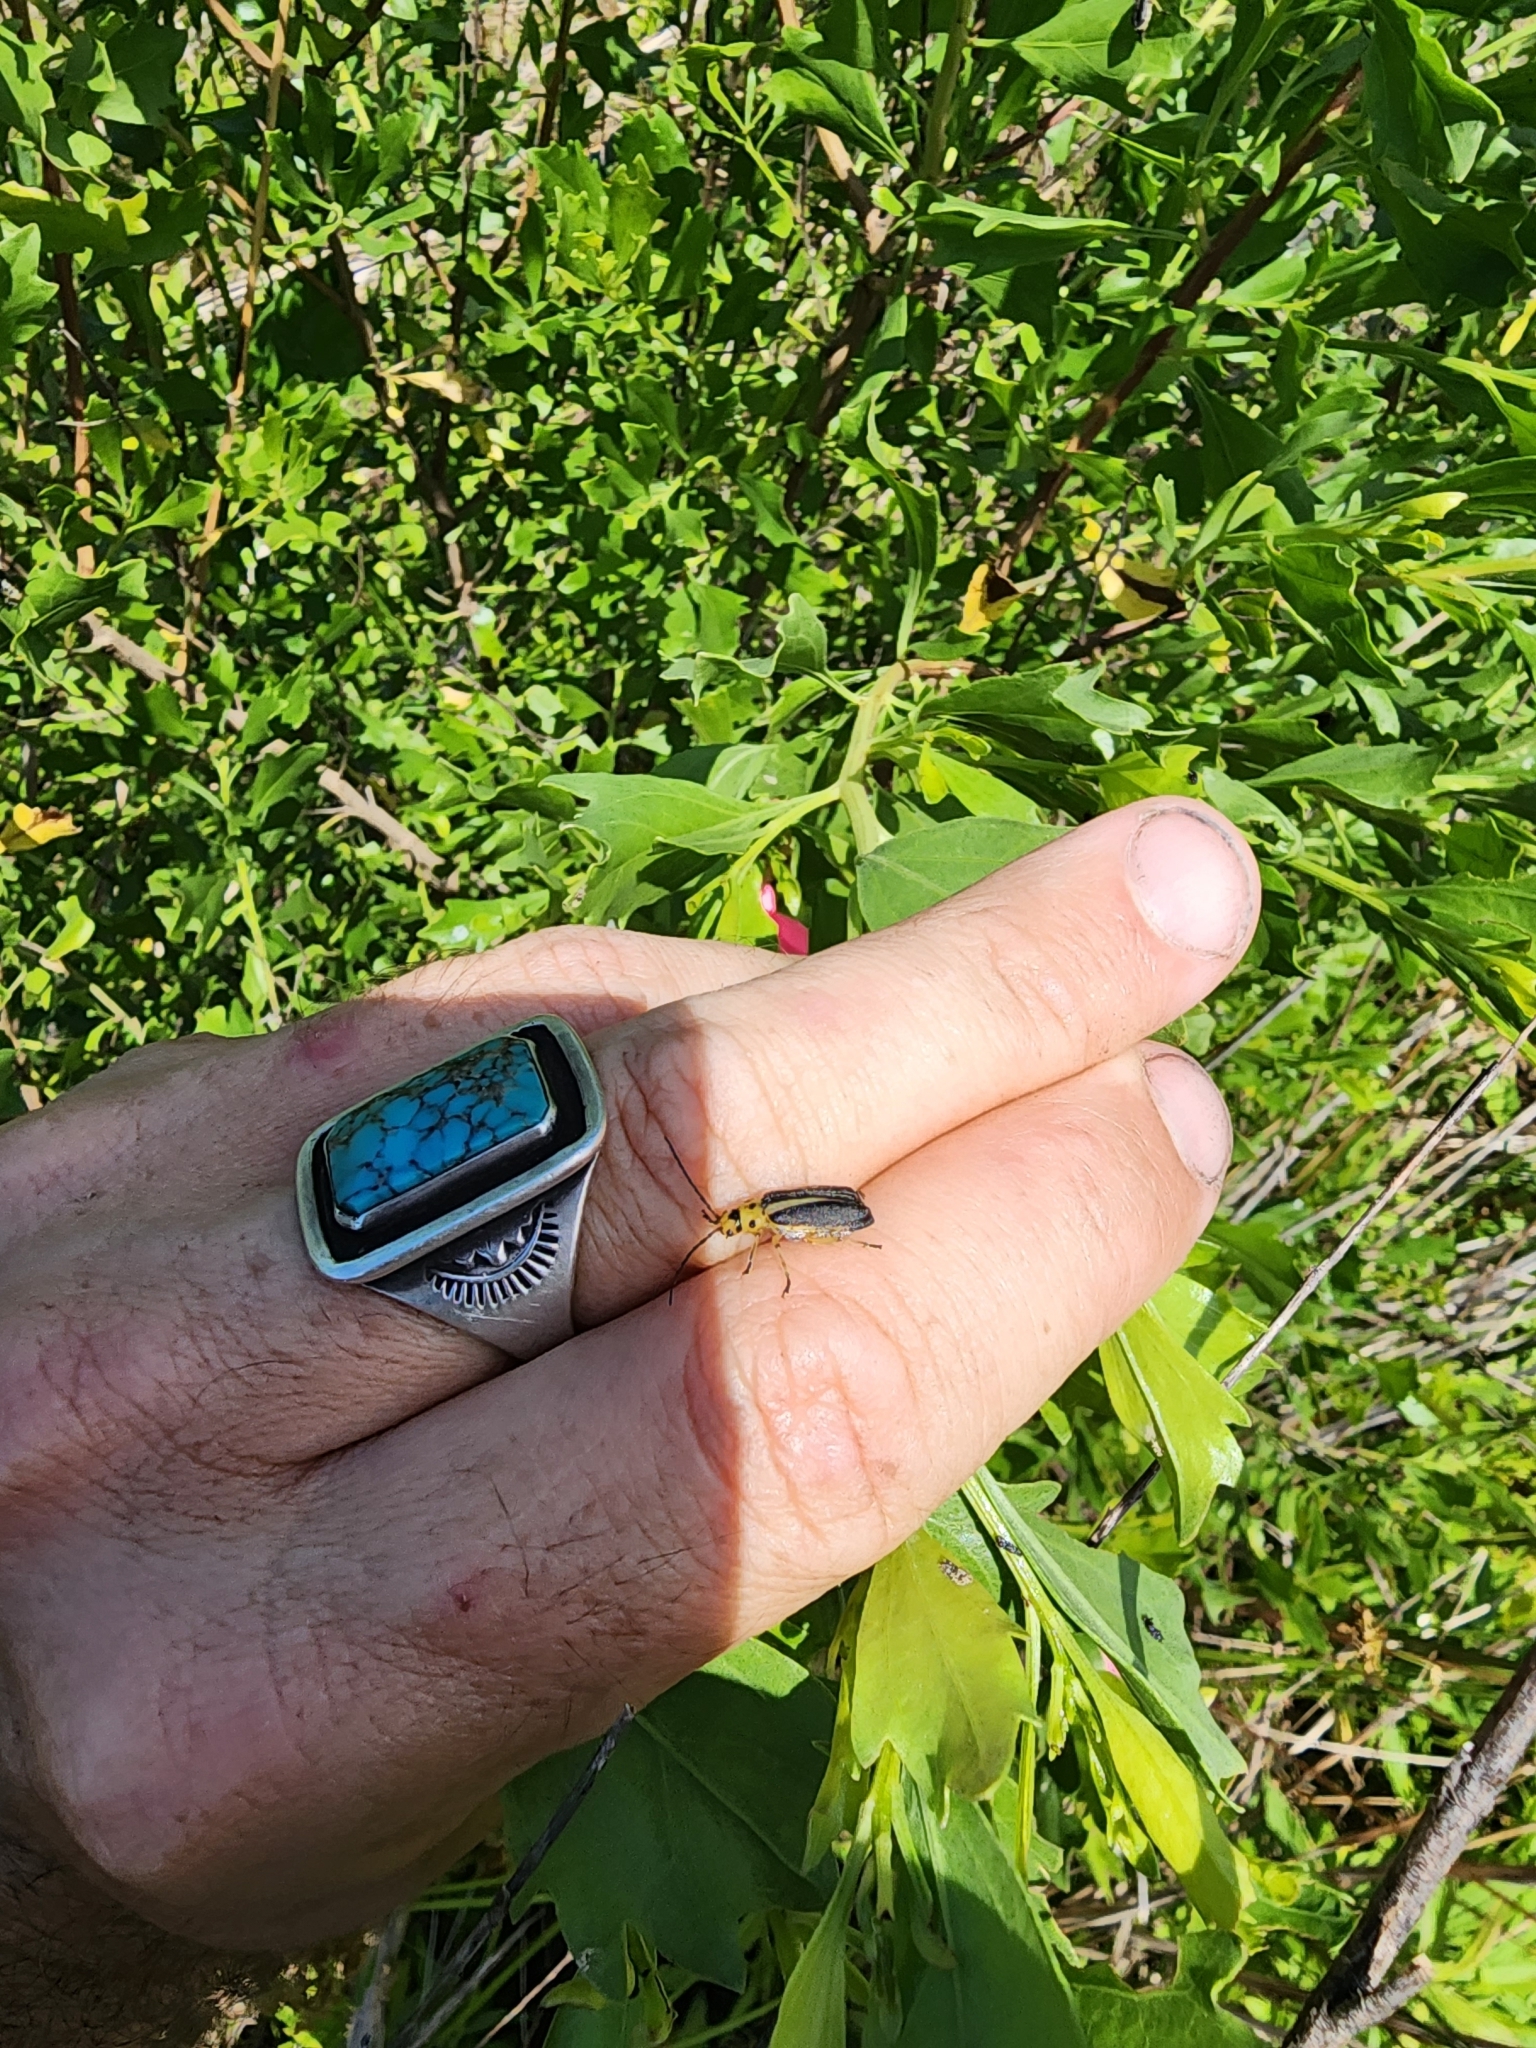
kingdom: Animalia
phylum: Arthropoda
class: Insecta
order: Coleoptera
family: Chrysomelidae
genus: Trirhabda
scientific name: Trirhabda bacharidis
